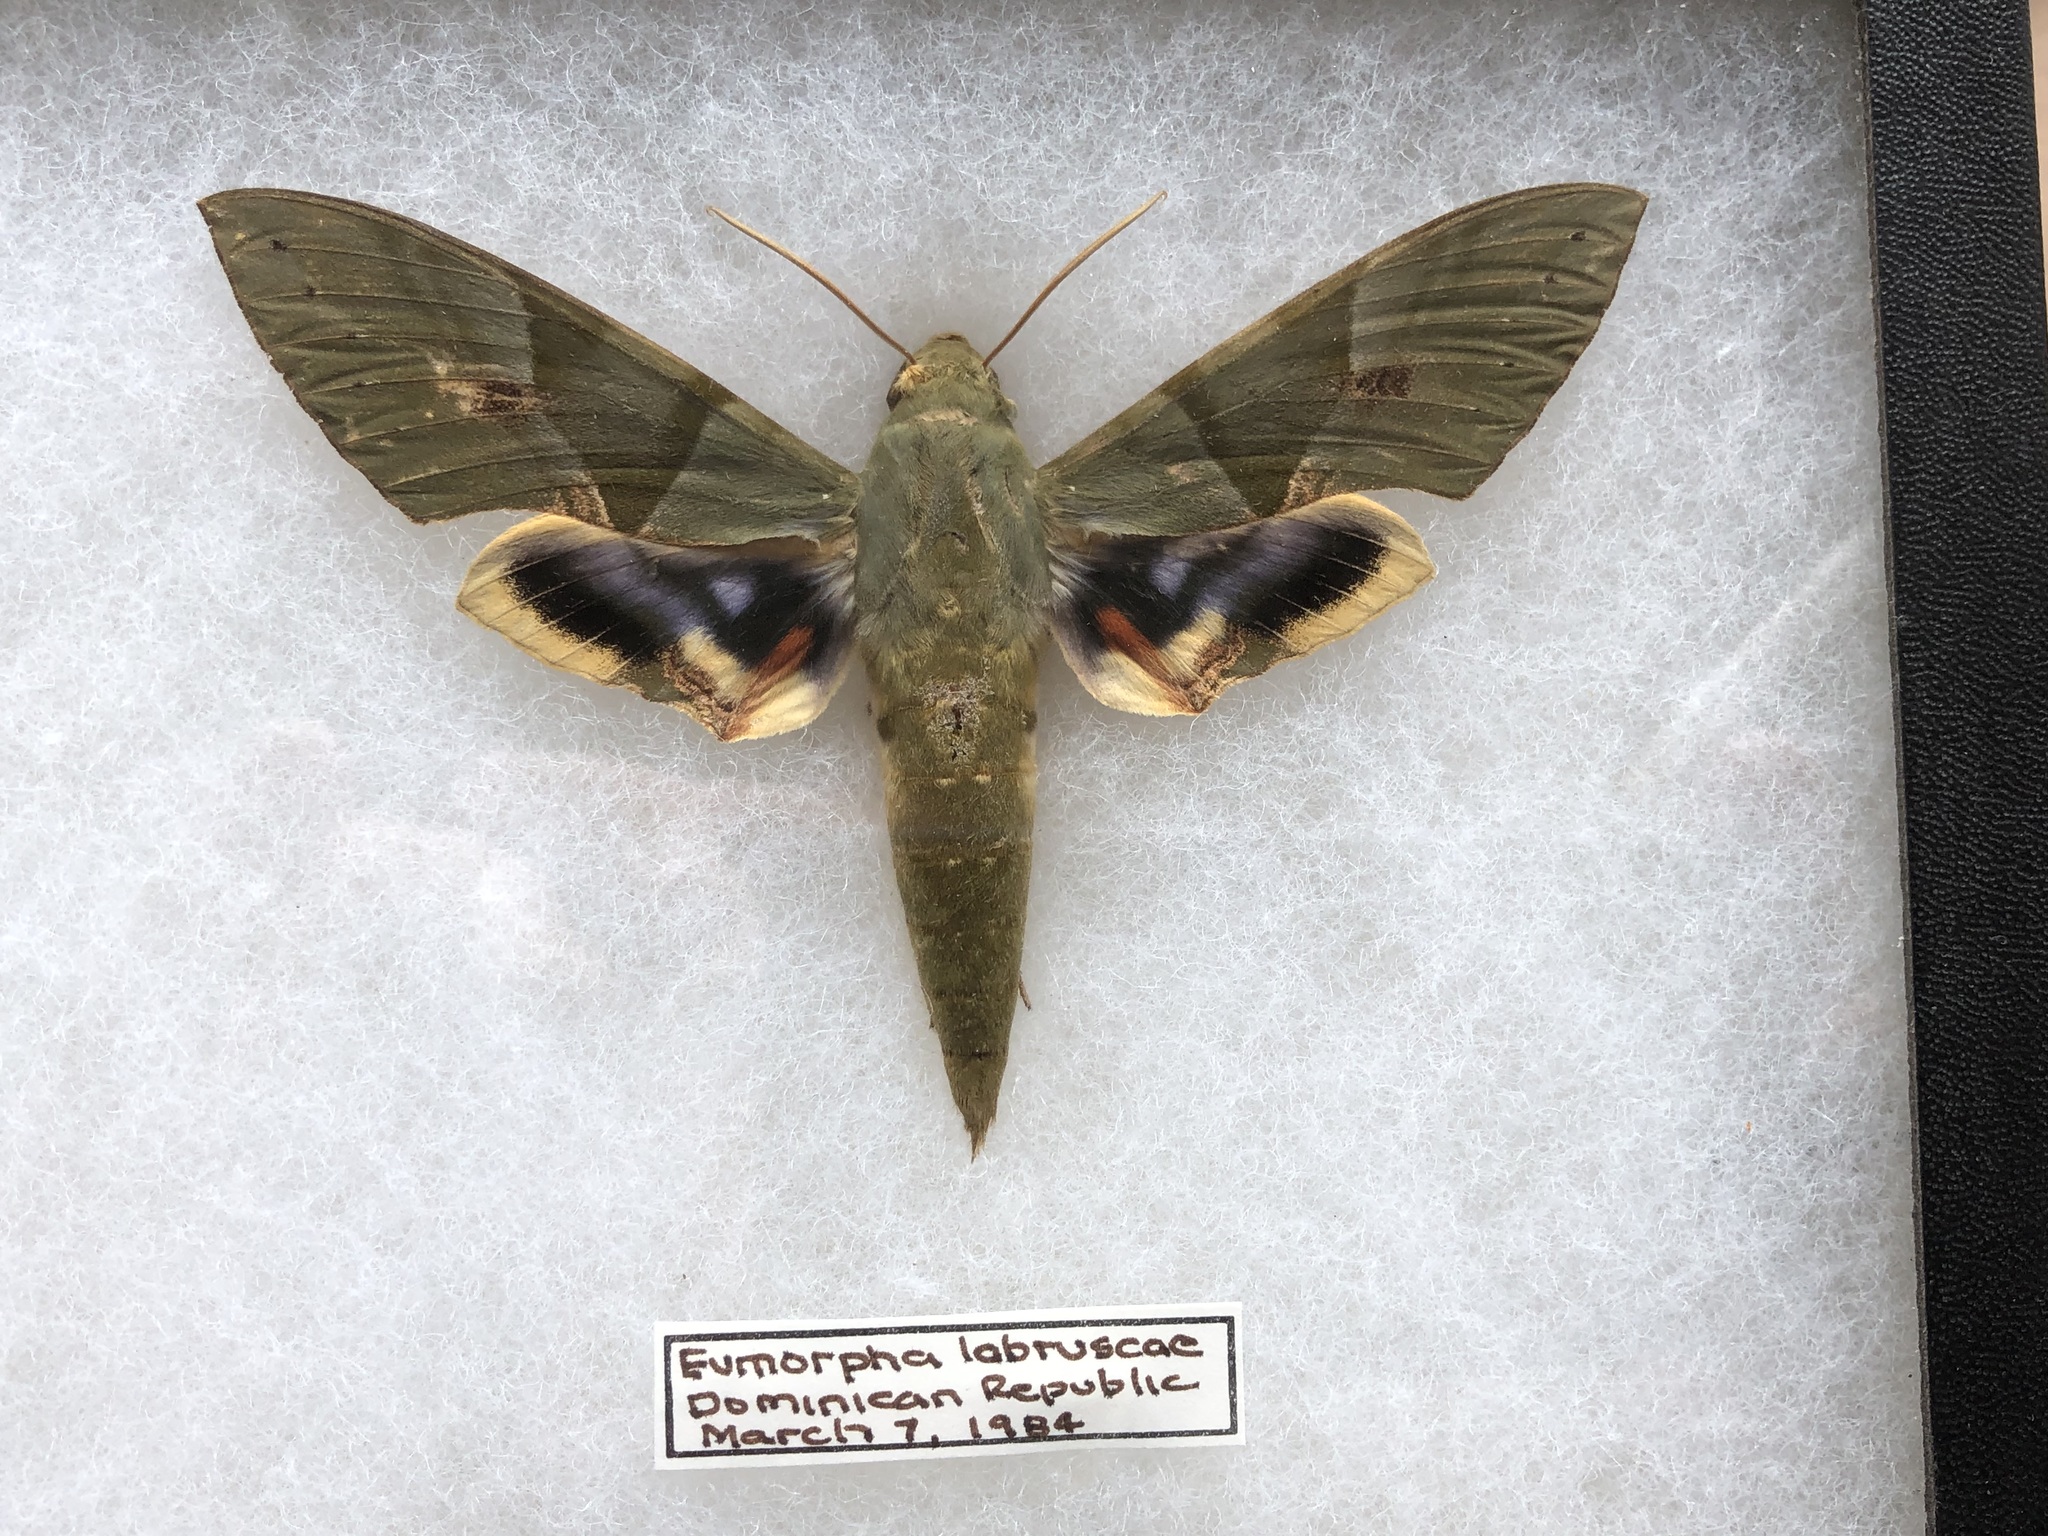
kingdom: Animalia
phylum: Arthropoda
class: Insecta
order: Lepidoptera
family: Sphingidae
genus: Eumorpha
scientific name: Eumorpha labruscae
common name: Gaudy sphinx
